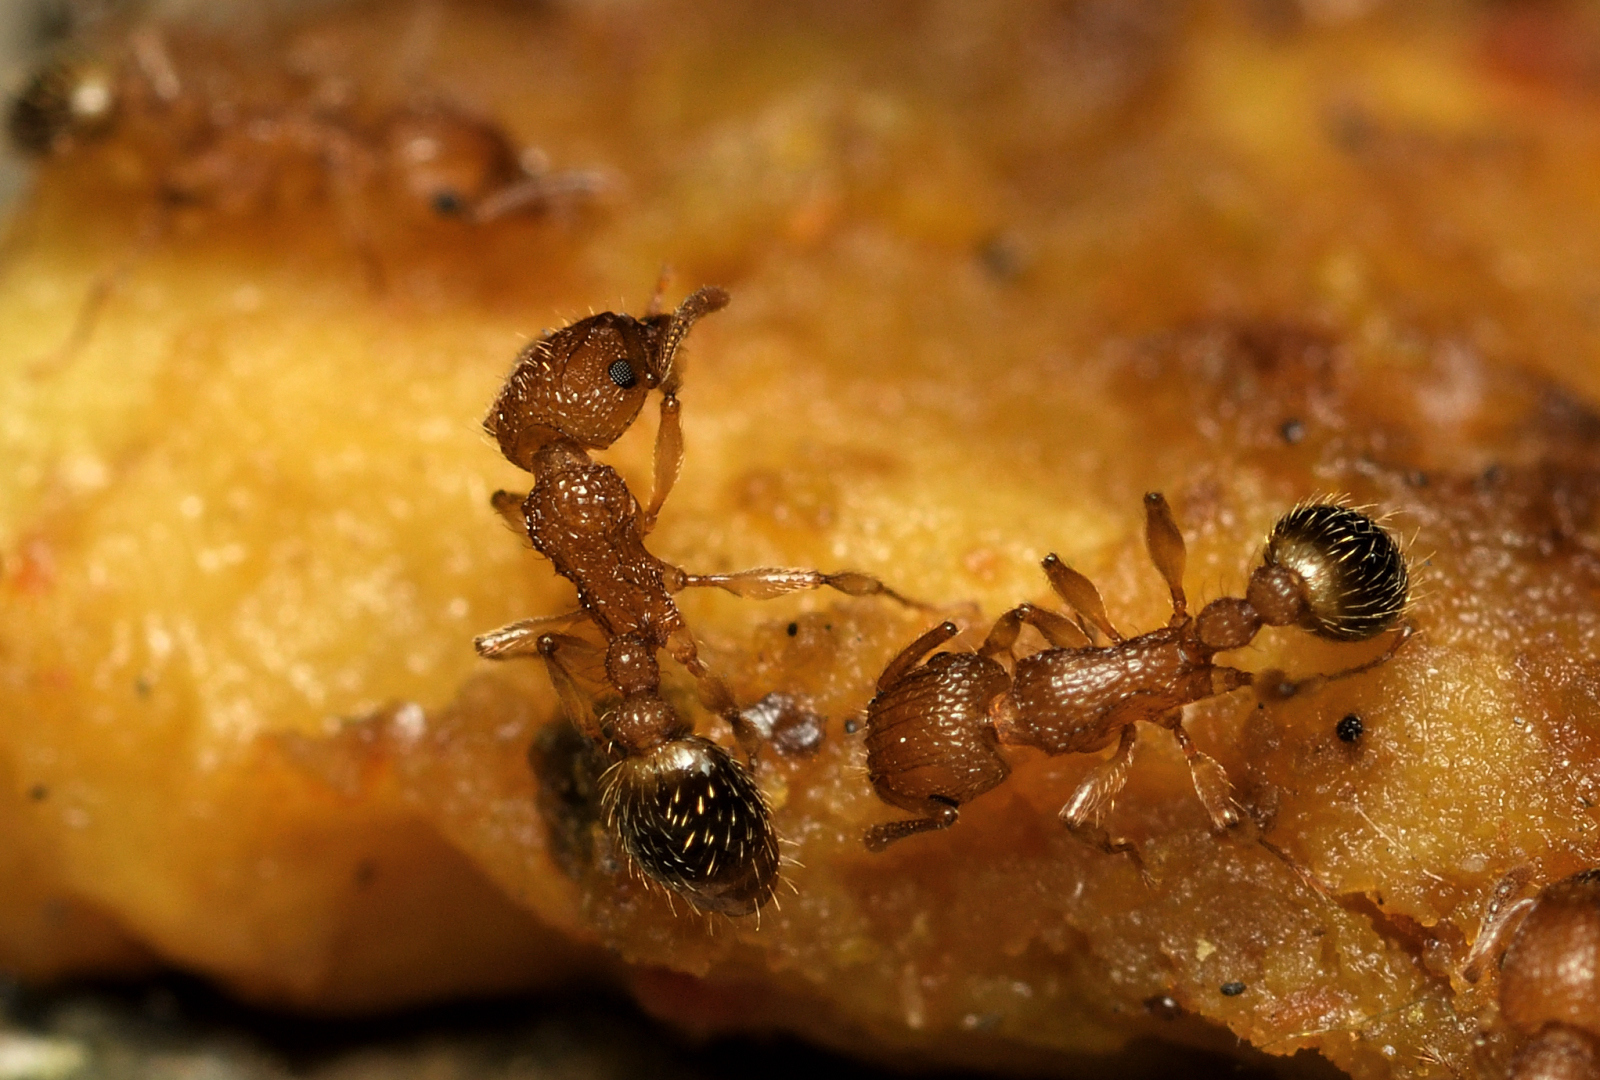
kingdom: Animalia
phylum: Arthropoda
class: Insecta
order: Hymenoptera
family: Formicidae
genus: Tetramorium
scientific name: Tetramorium bicarinatum
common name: Guinea ant
